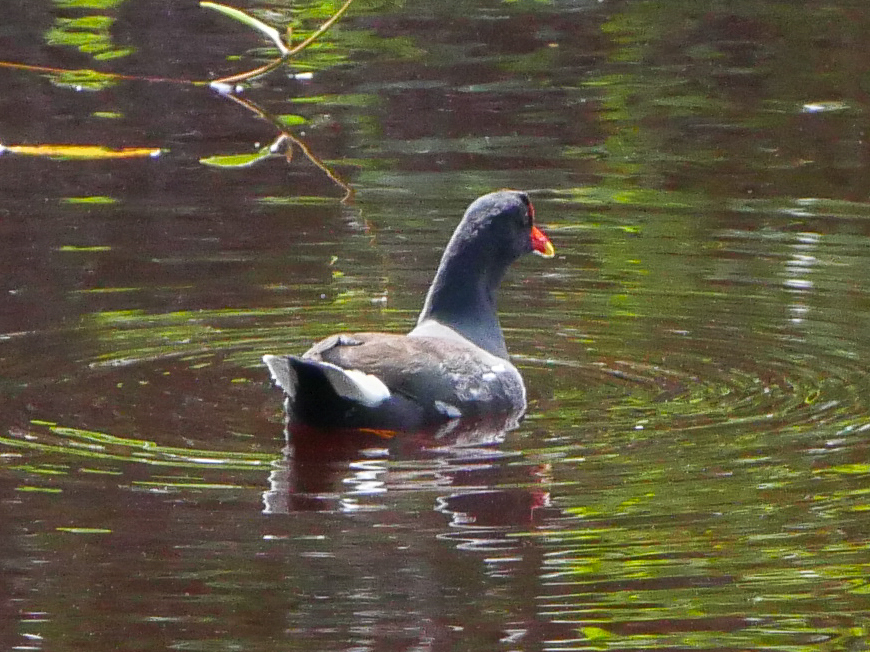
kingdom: Animalia
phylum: Chordata
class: Aves
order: Gruiformes
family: Rallidae
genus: Gallinula
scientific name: Gallinula chloropus
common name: Common moorhen
